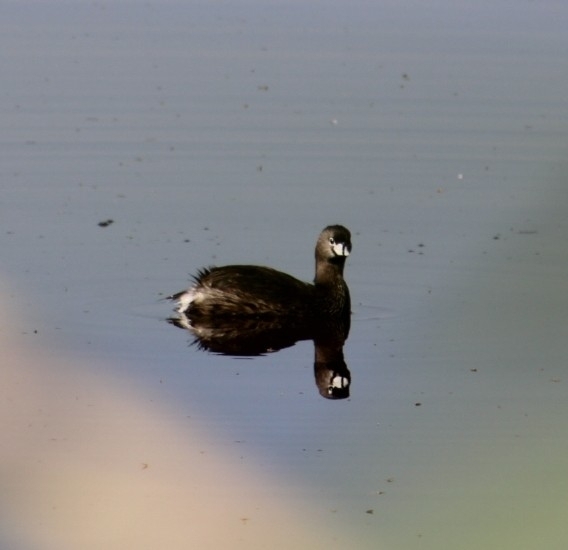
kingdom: Animalia
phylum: Chordata
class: Aves
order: Podicipediformes
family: Podicipedidae
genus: Podilymbus
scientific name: Podilymbus podiceps
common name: Pied-billed grebe
